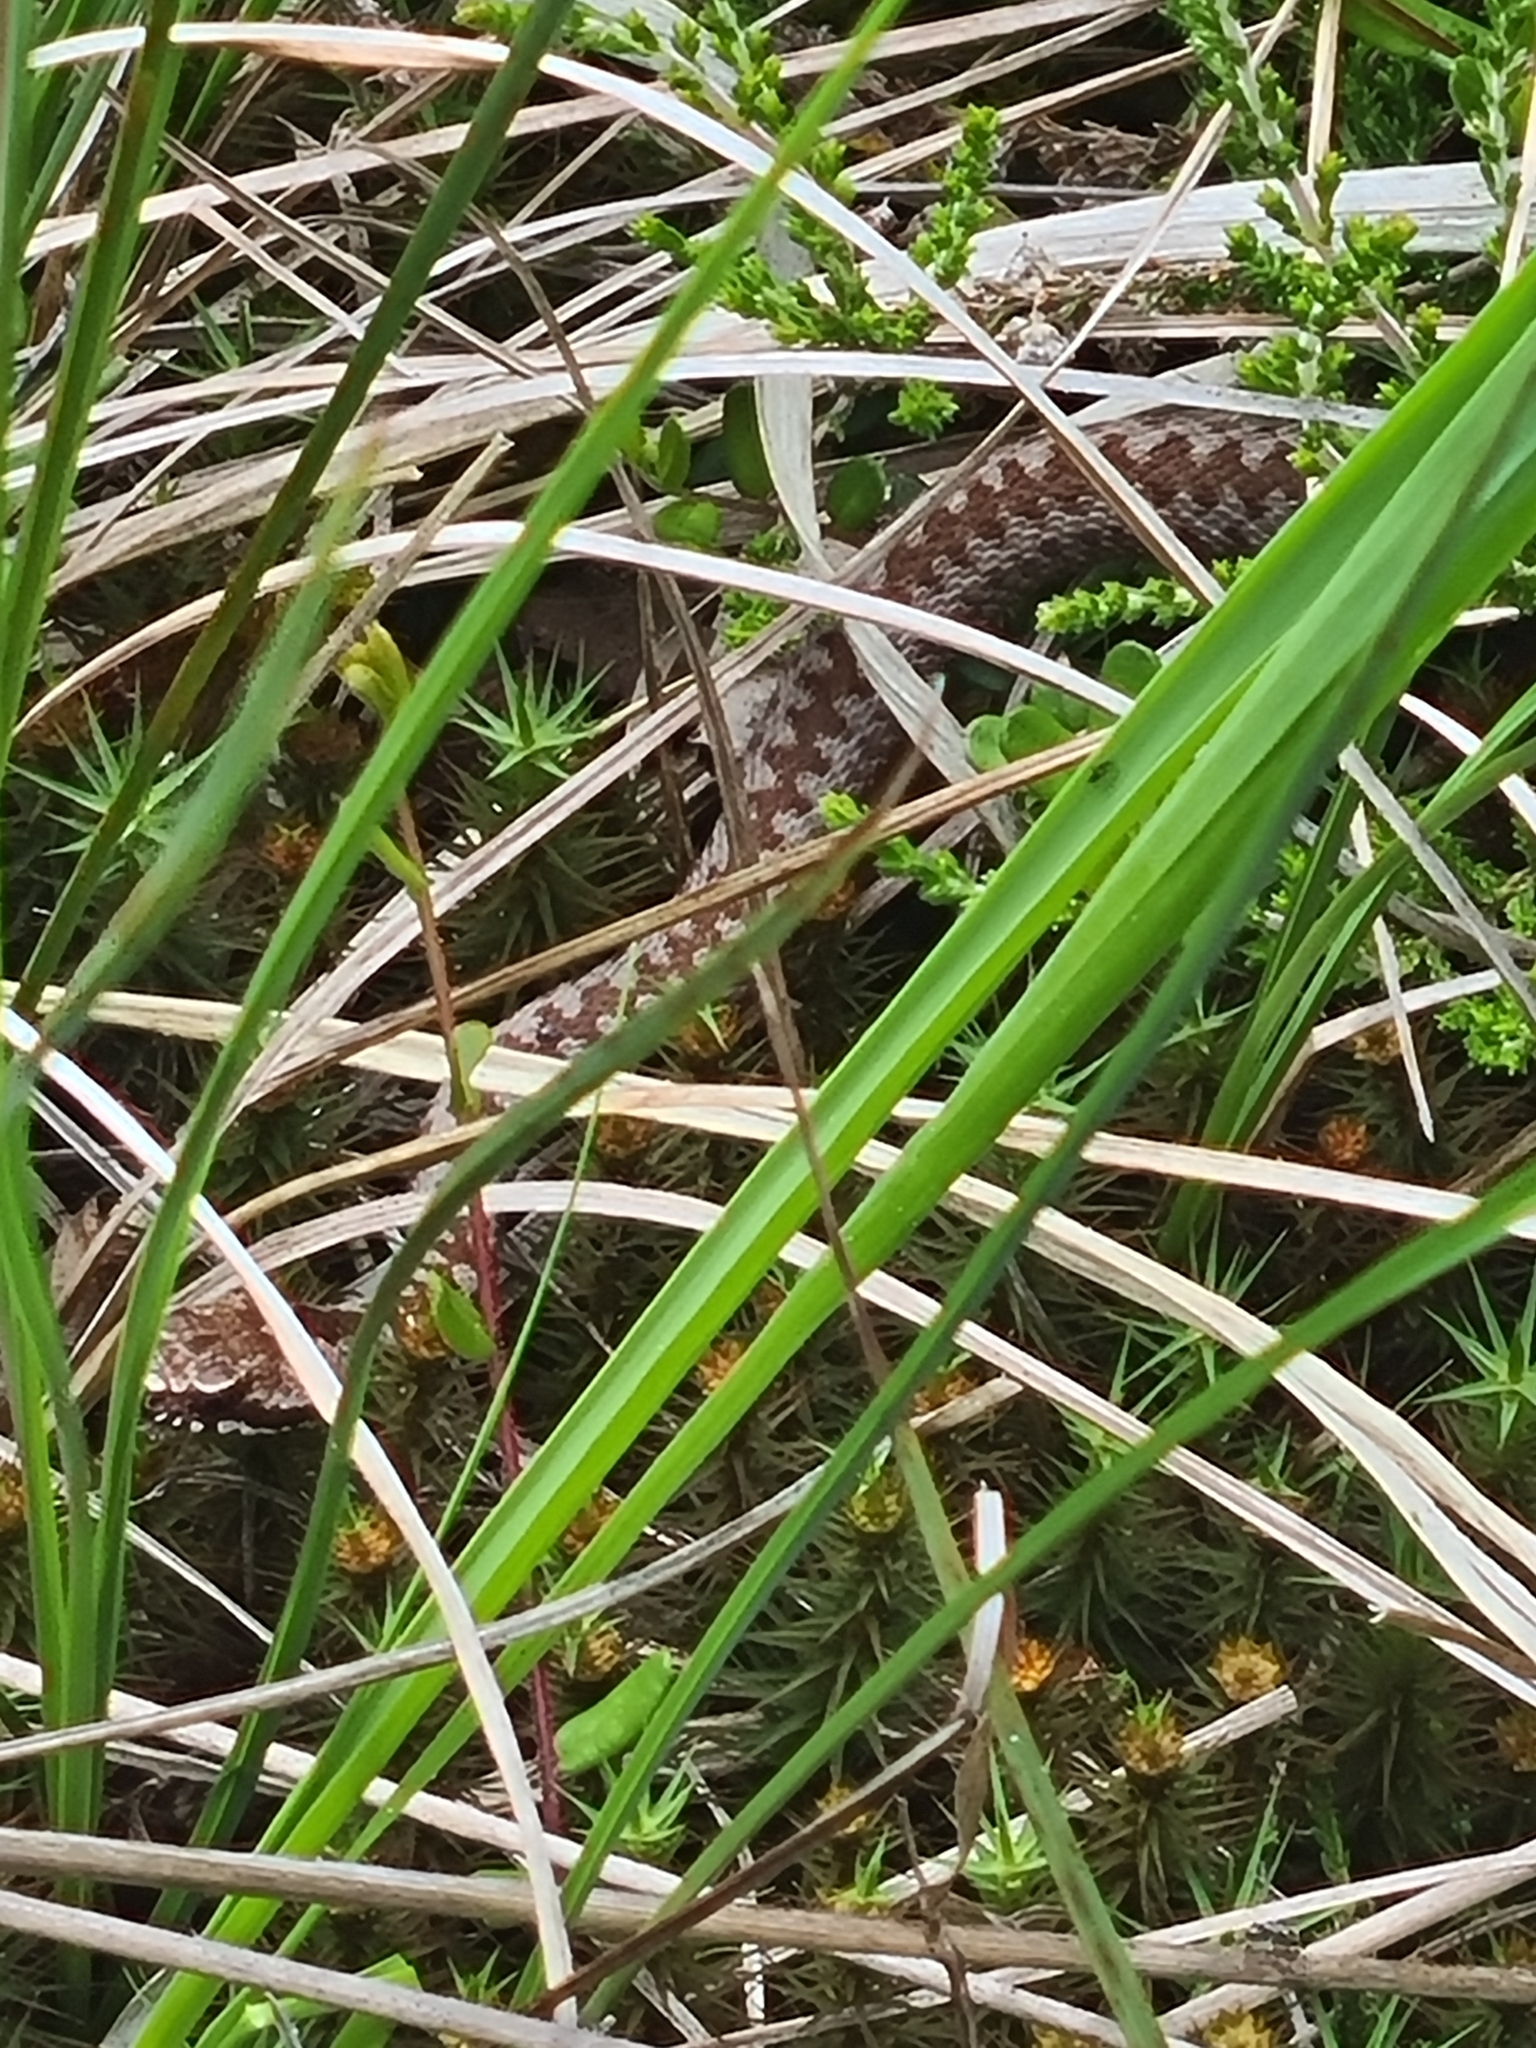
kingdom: Animalia
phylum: Chordata
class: Squamata
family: Viperidae
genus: Vipera
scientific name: Vipera berus
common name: Adder
